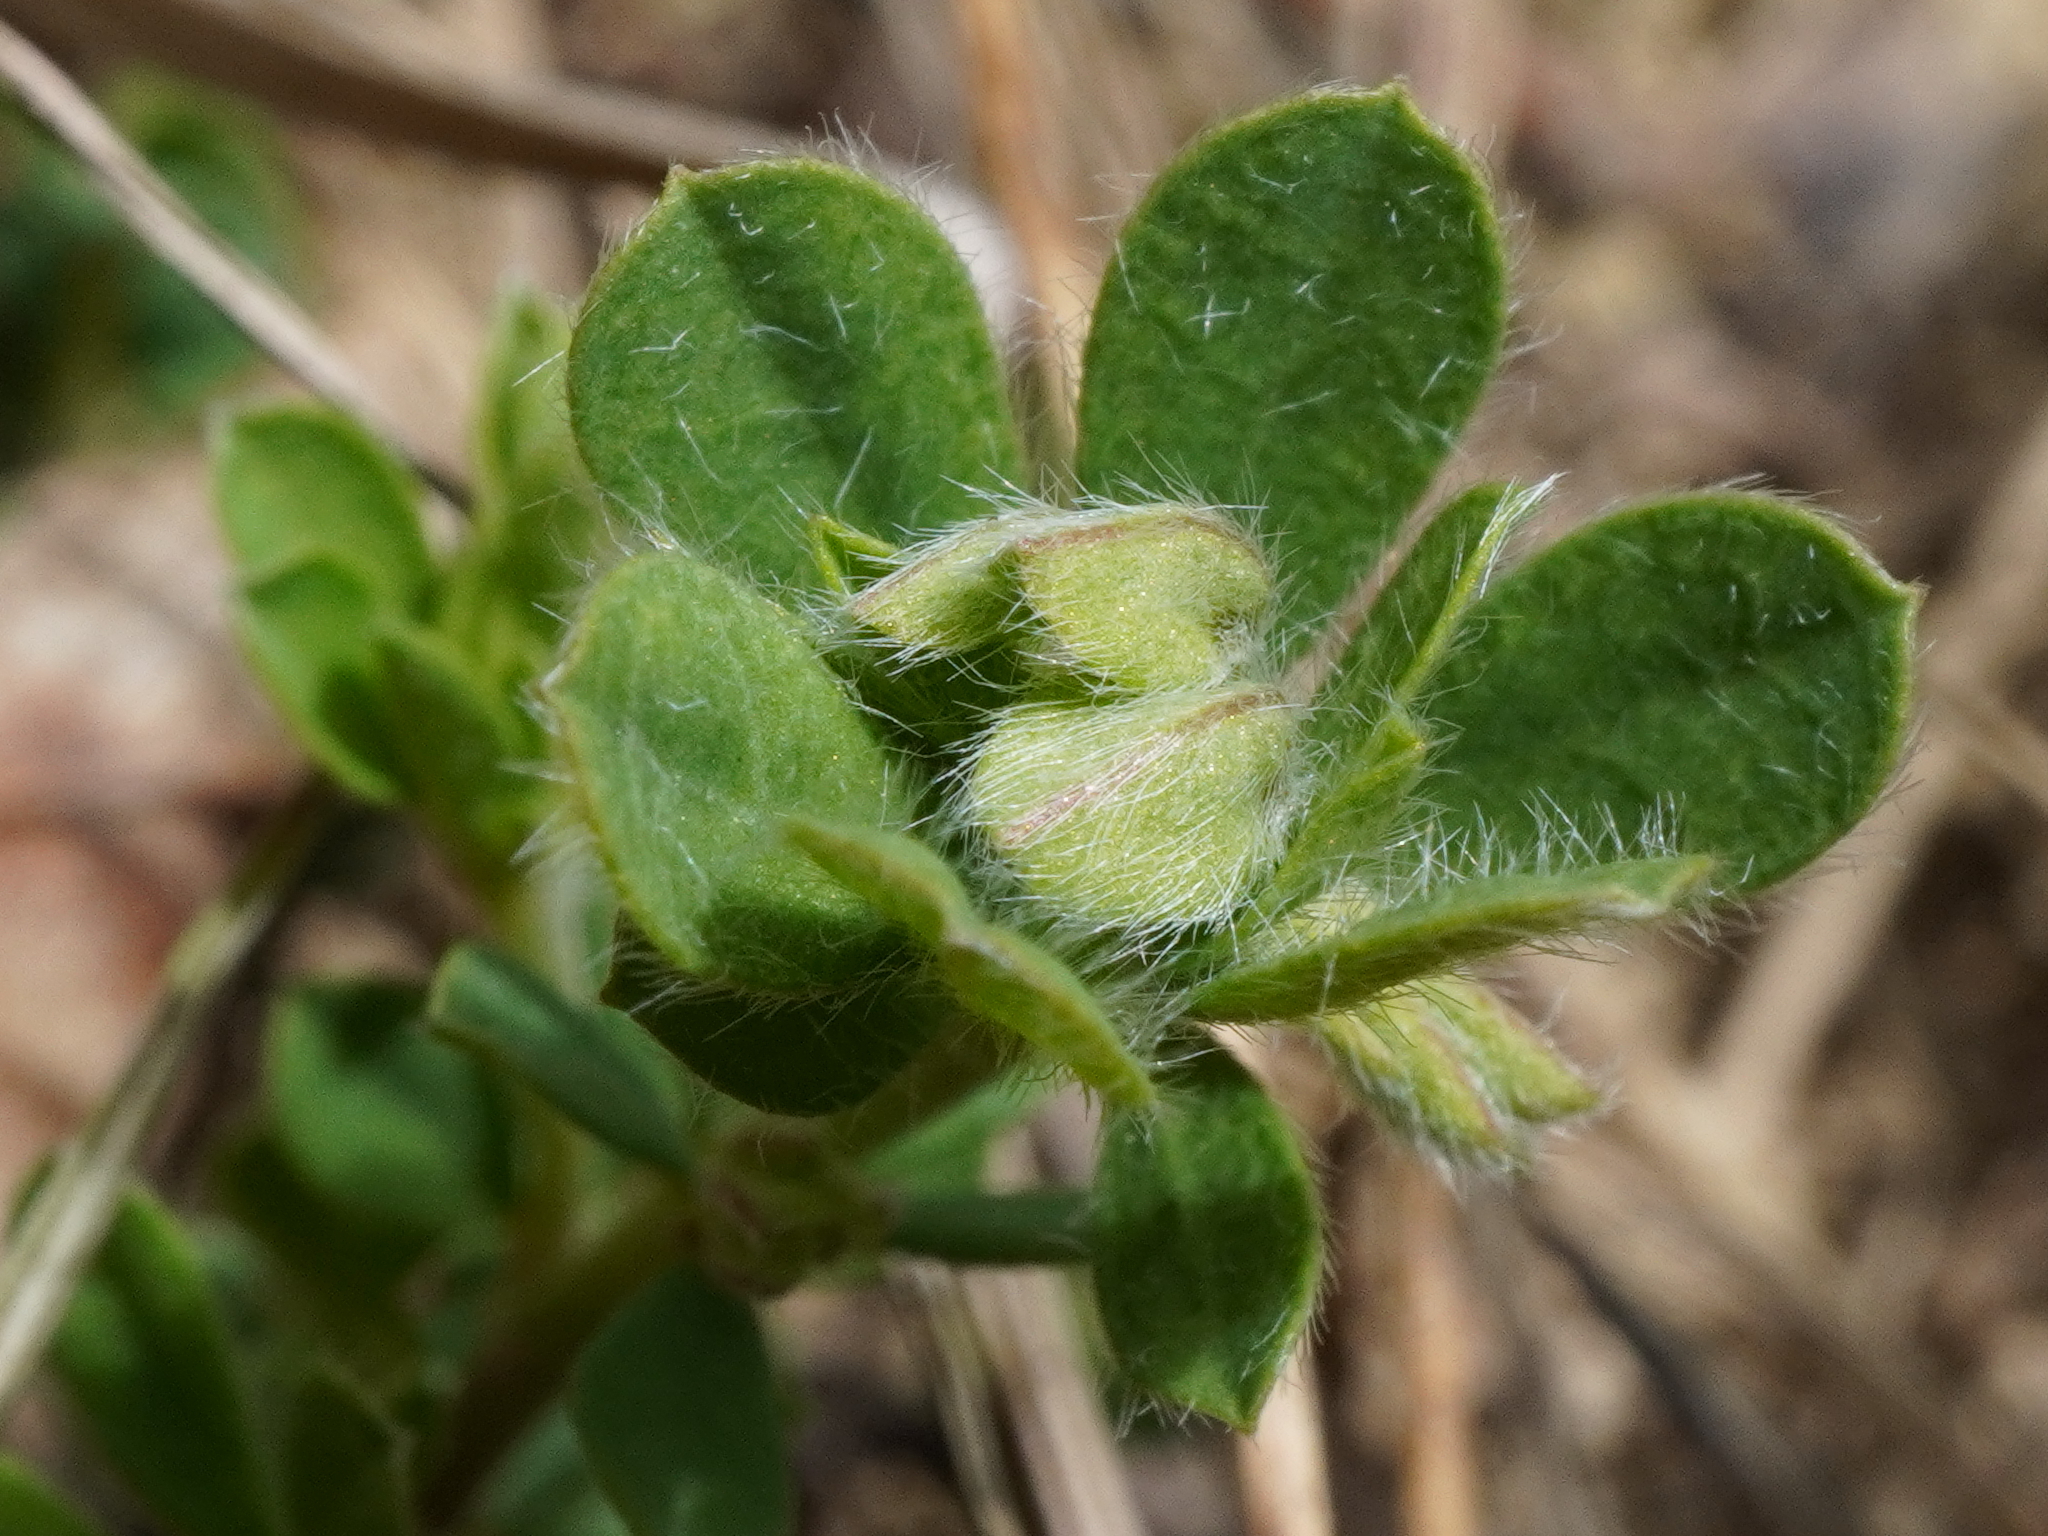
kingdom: Plantae
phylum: Tracheophyta
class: Magnoliopsida
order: Fabales
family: Fabaceae
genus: Lotus
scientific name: Lotus herbaceus
